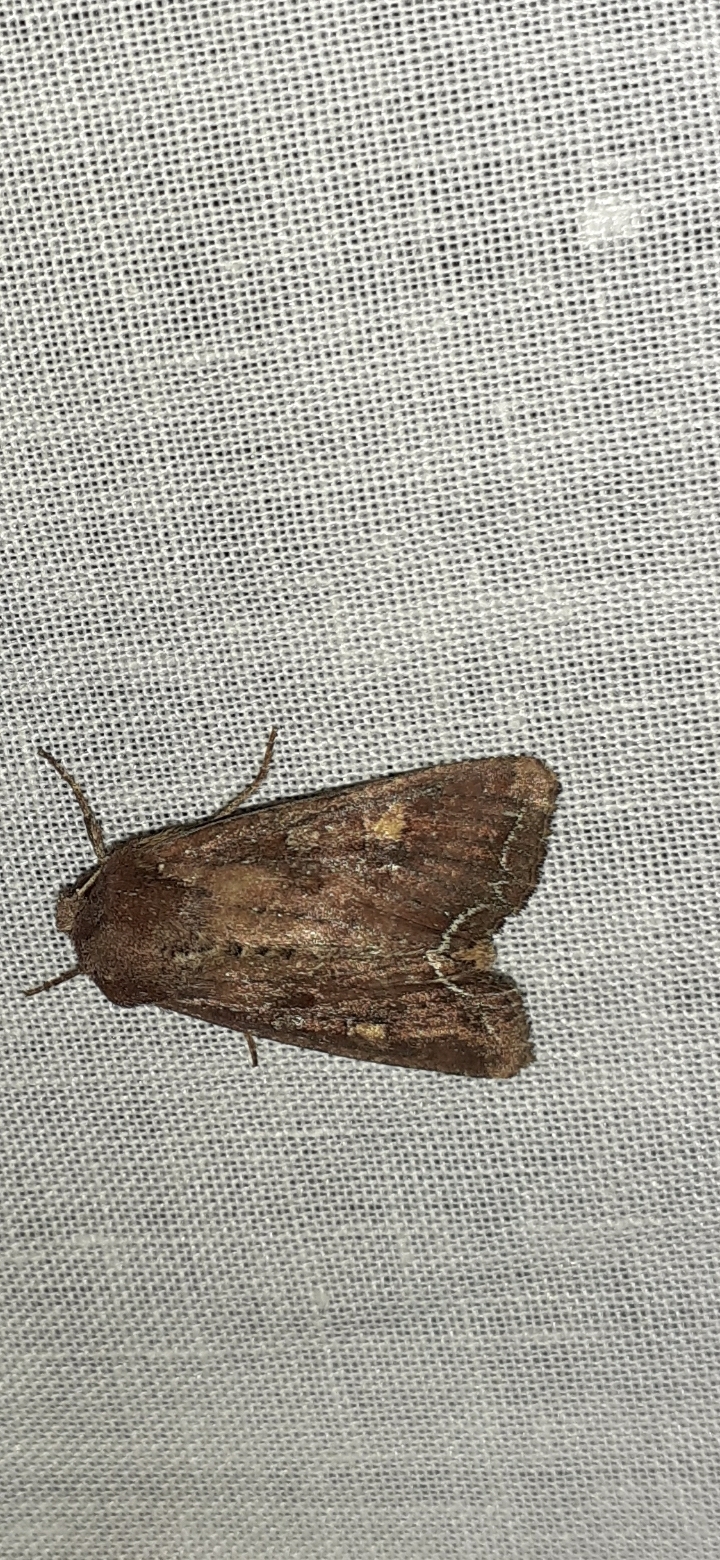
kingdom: Animalia
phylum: Arthropoda
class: Insecta
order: Lepidoptera
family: Noctuidae
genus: Lacanobia
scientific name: Lacanobia oleracea
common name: Bright-line brown-eye
